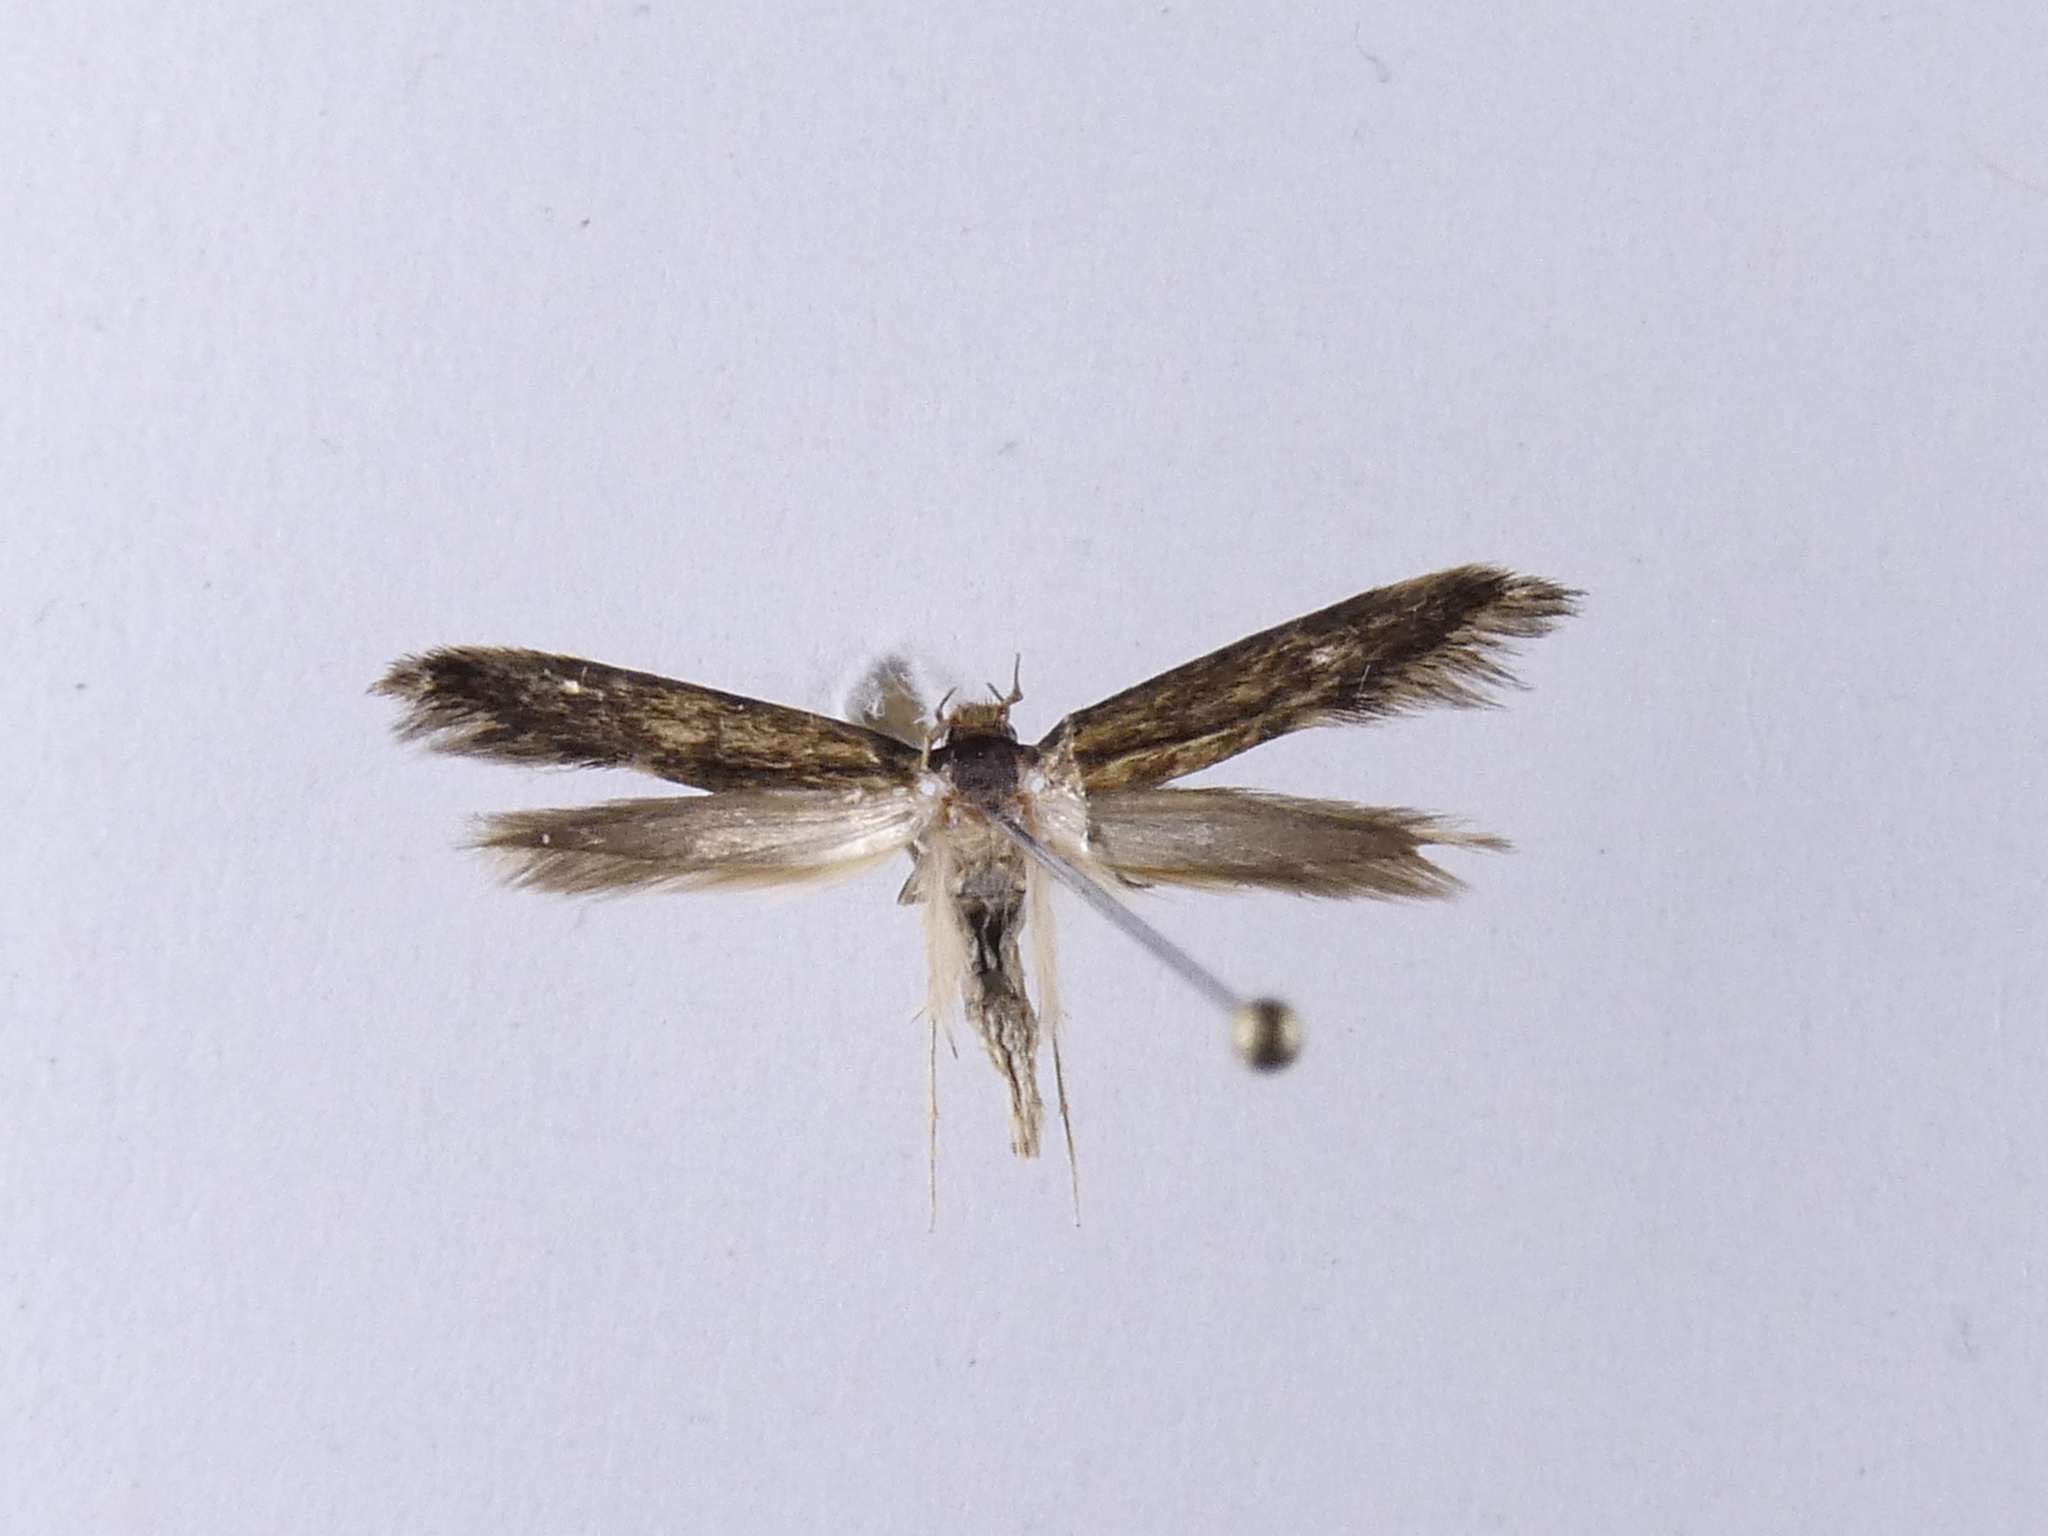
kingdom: Animalia
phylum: Arthropoda
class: Insecta
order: Lepidoptera
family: Tineidae
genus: Opogona
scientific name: Opogona omoscopa
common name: Moth
